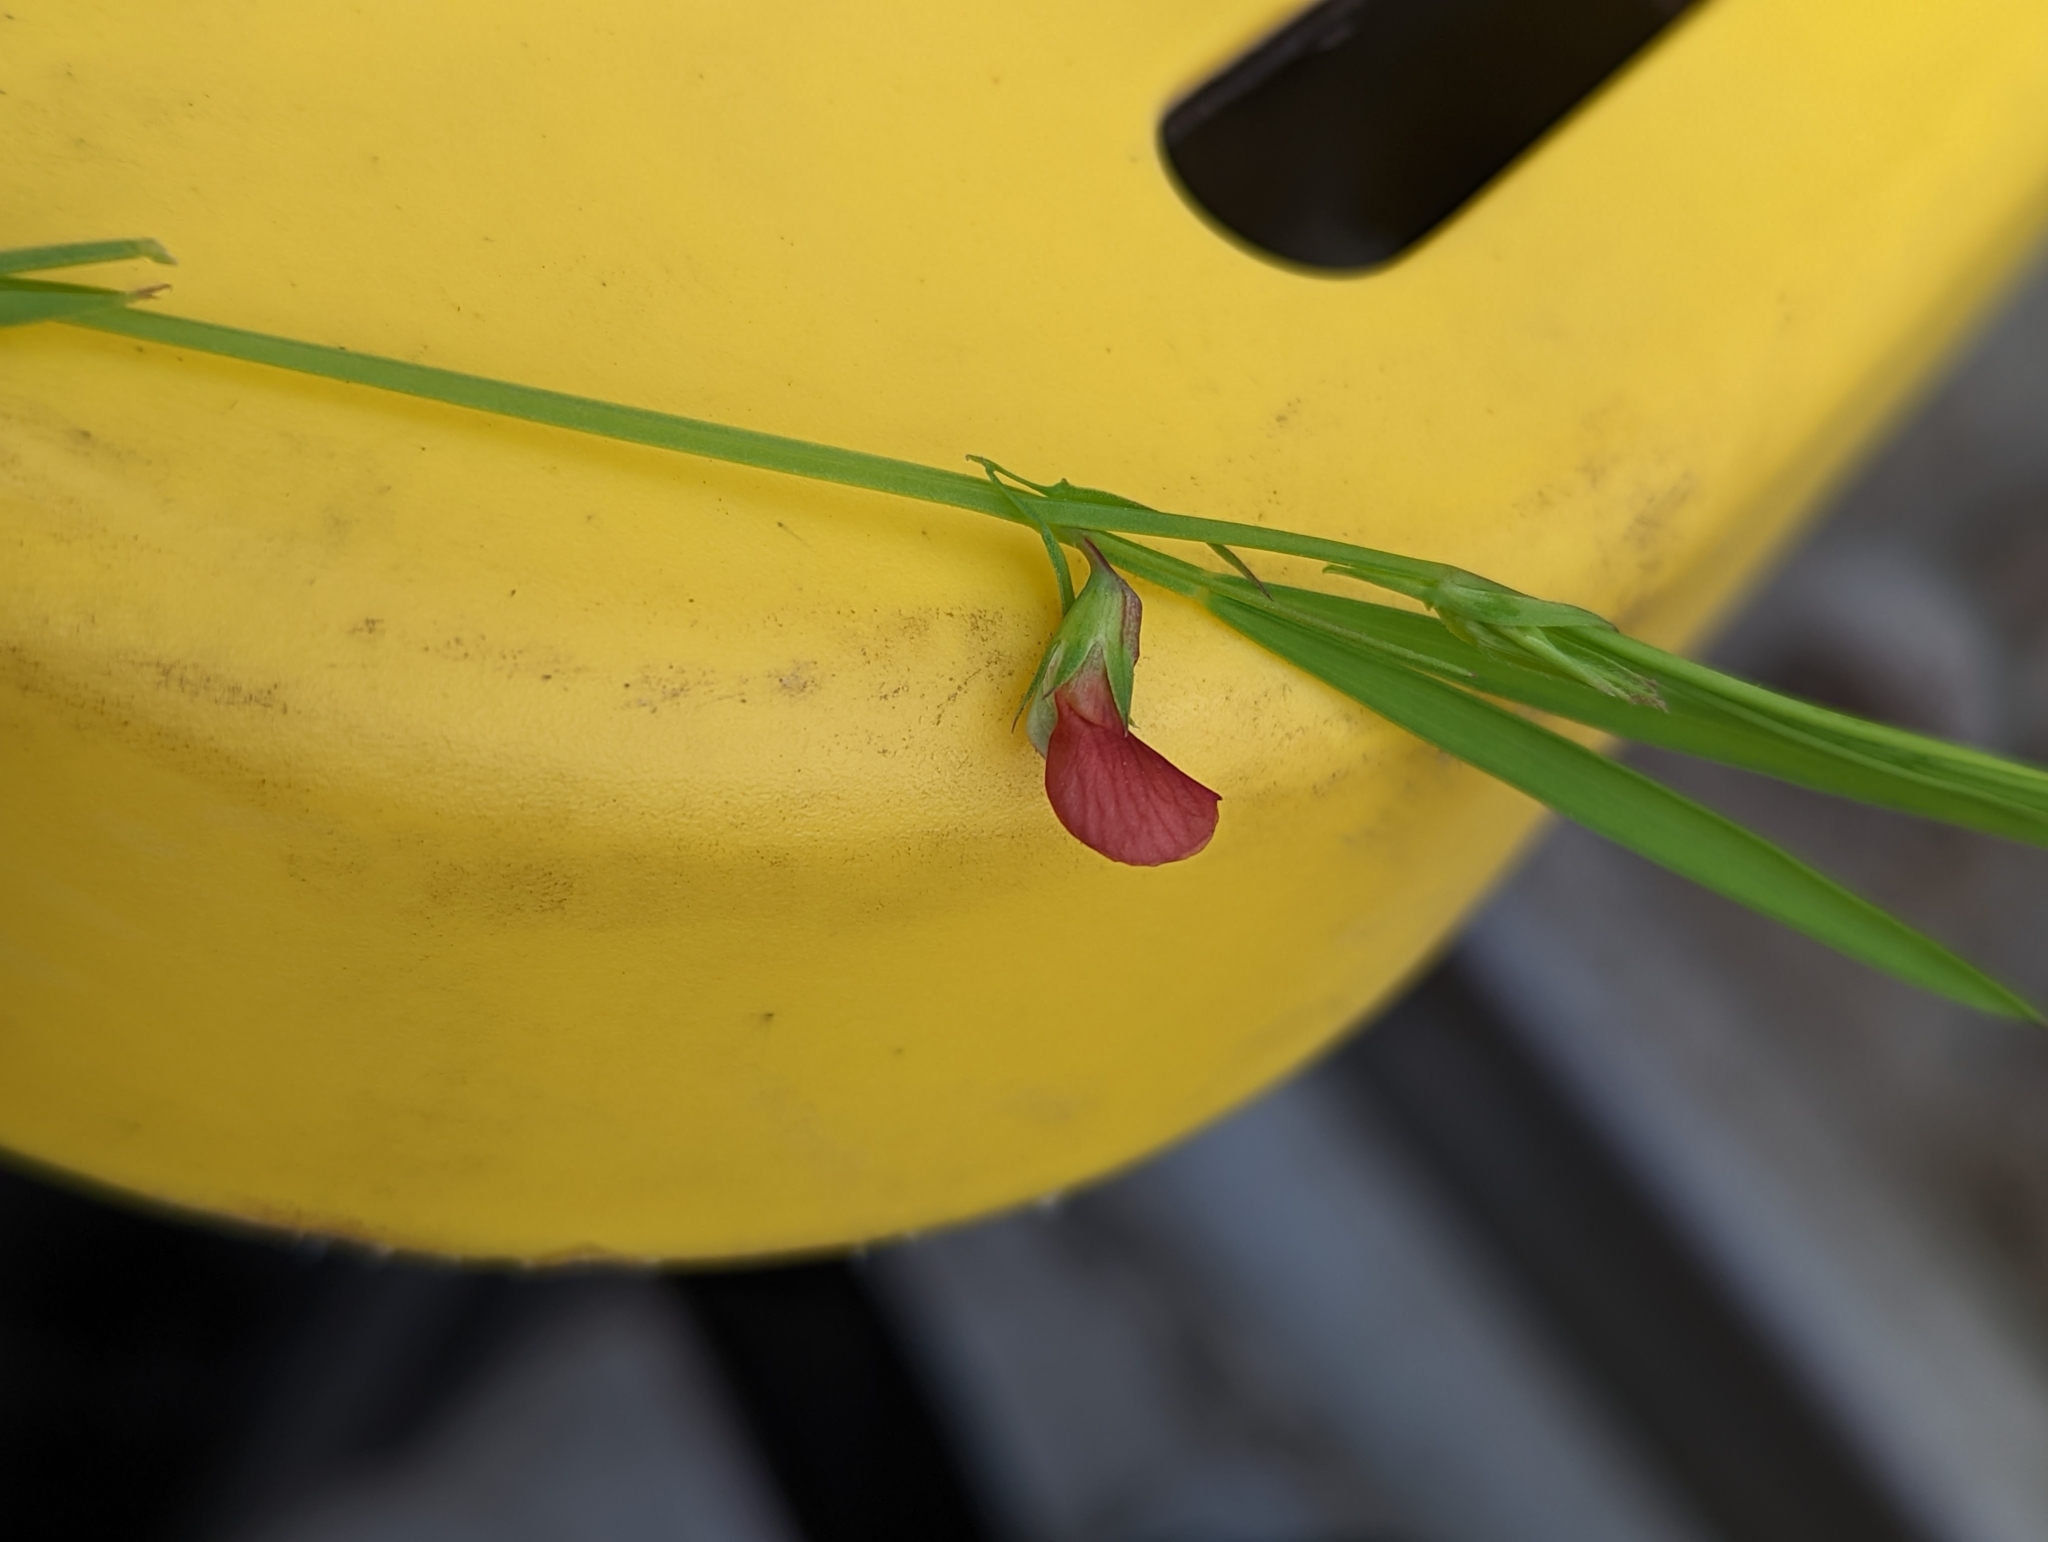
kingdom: Plantae
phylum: Tracheophyta
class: Magnoliopsida
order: Fabales
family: Fabaceae
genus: Lathyrus
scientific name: Lathyrus sphaericus
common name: Grass pea
